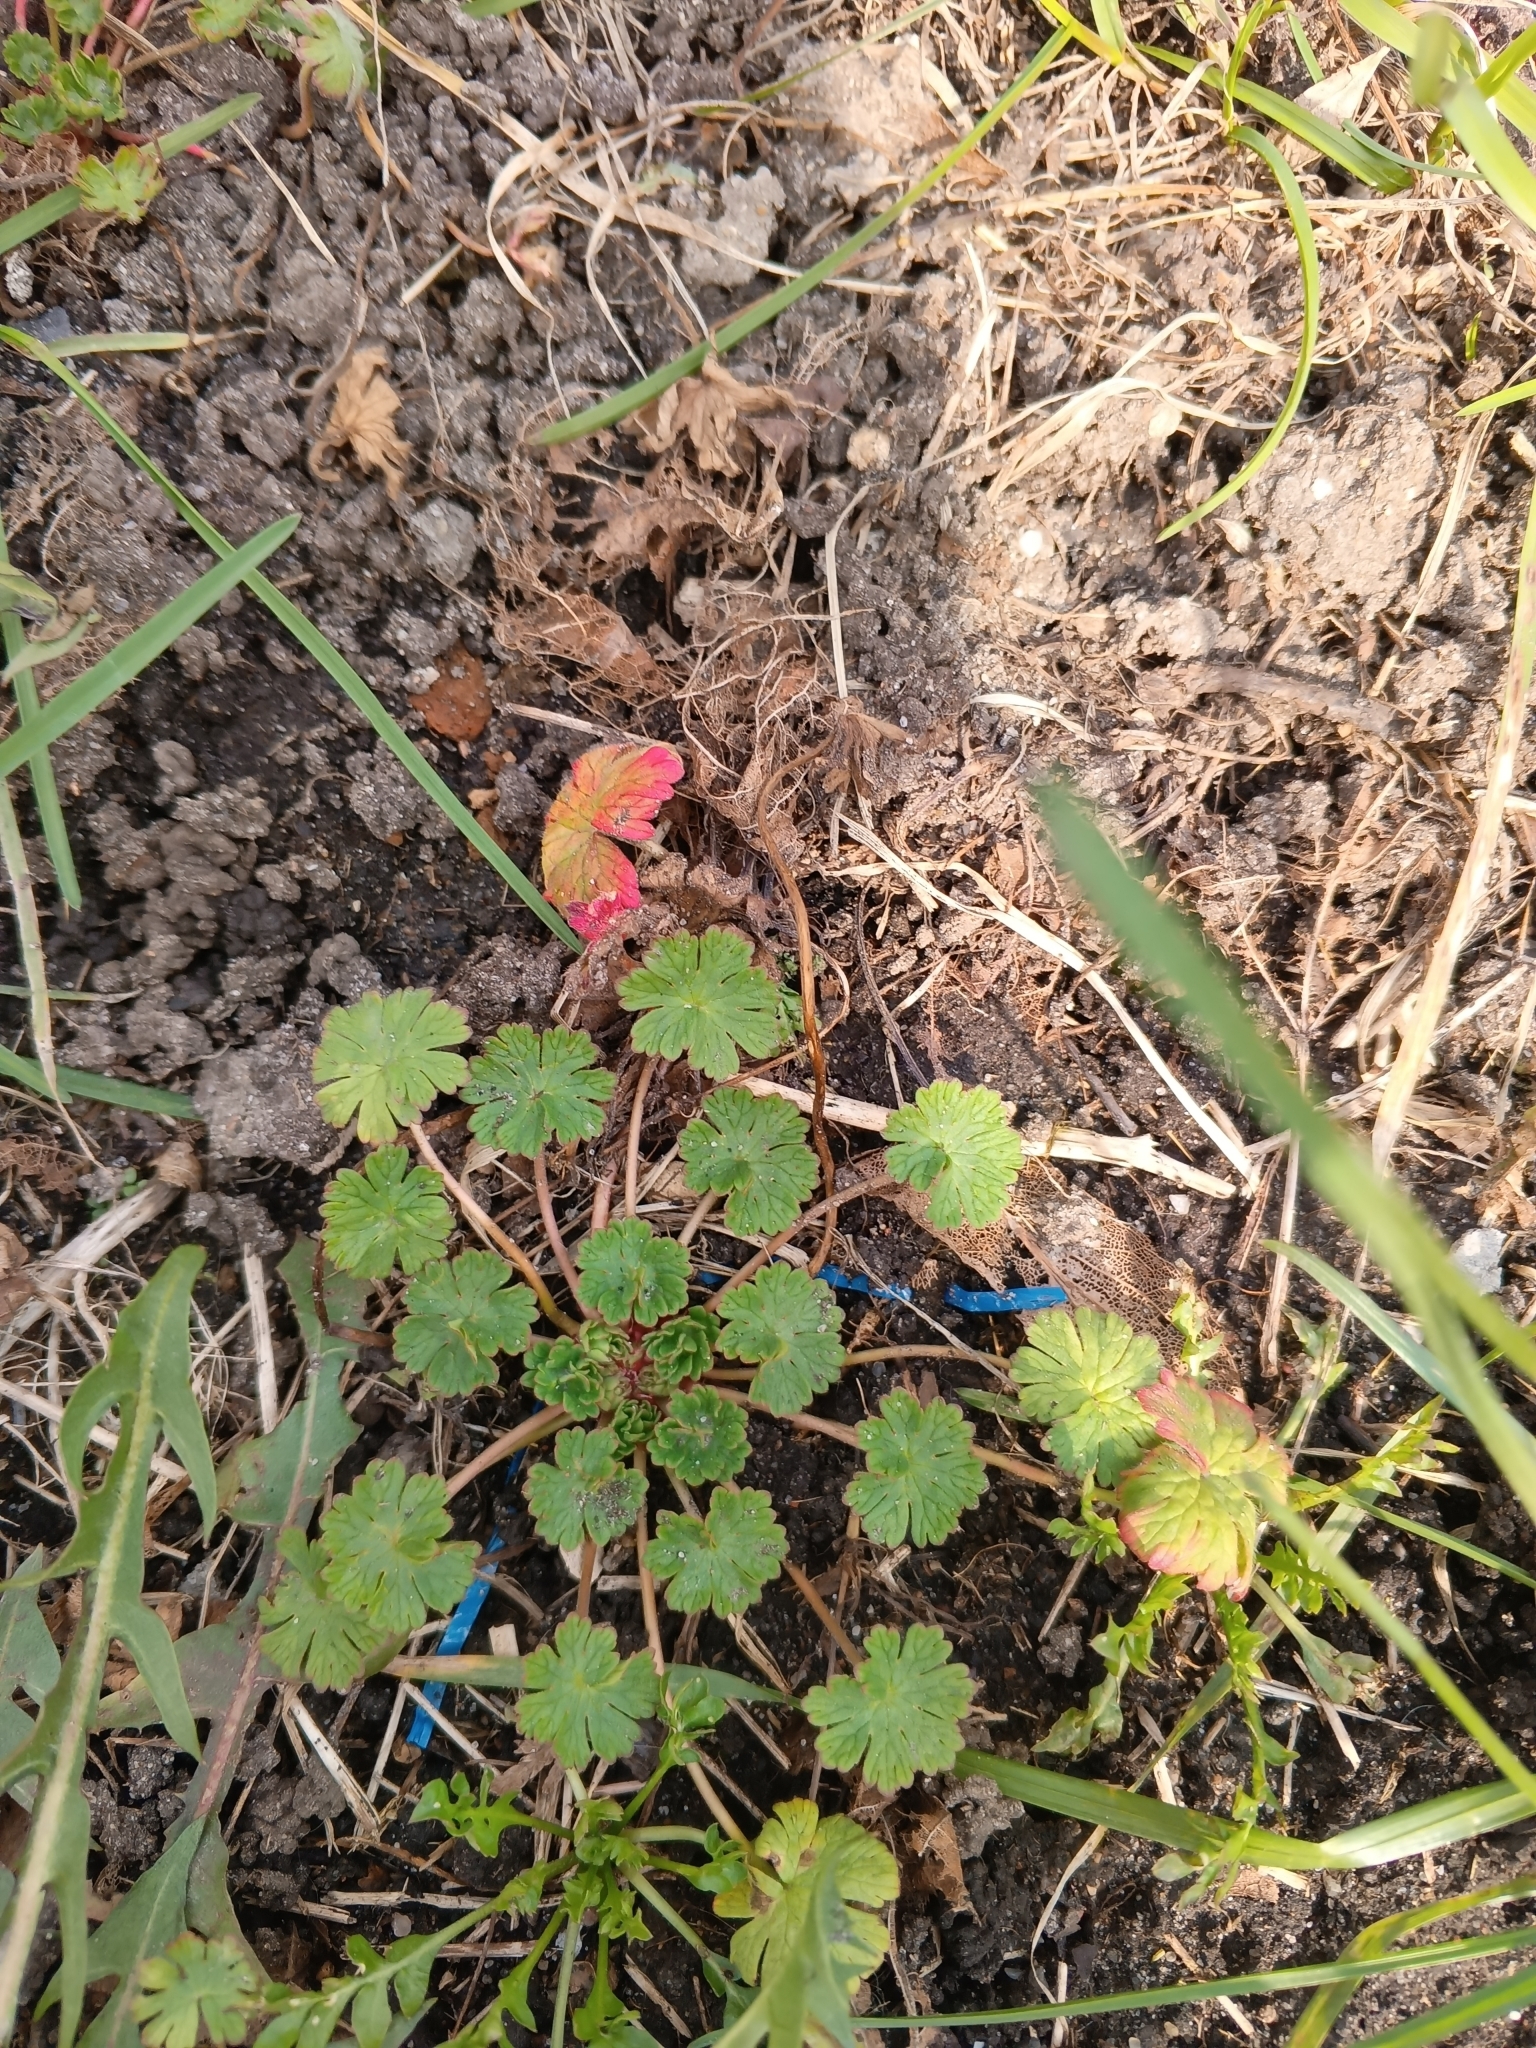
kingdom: Plantae
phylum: Tracheophyta
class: Magnoliopsida
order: Geraniales
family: Geraniaceae
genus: Geranium
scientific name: Geranium pusillum
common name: Small geranium
